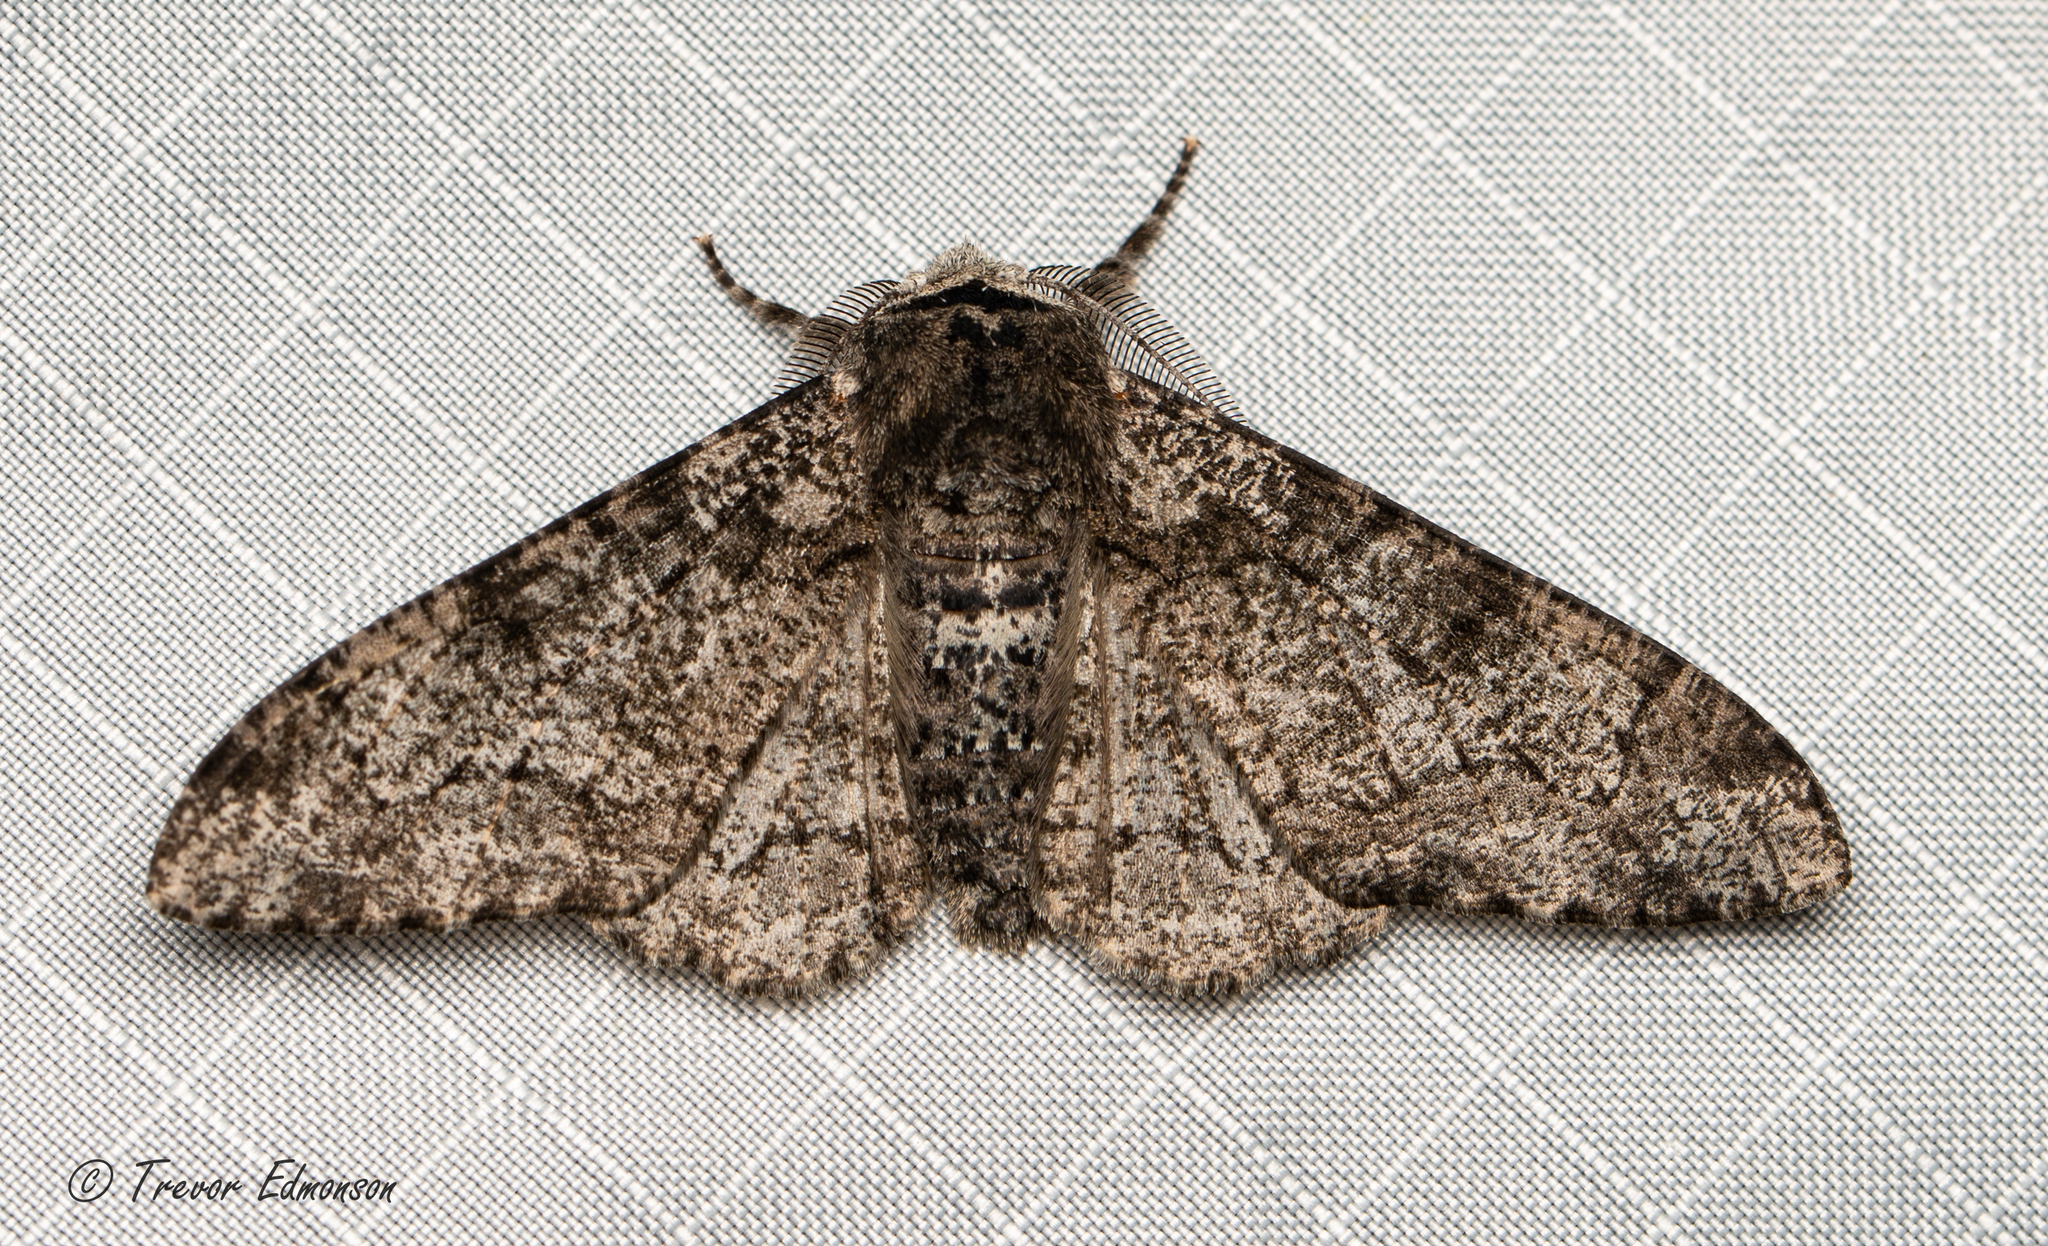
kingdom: Animalia
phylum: Arthropoda
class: Insecta
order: Lepidoptera
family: Geometridae
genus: Biston
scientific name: Biston betularia
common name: Peppered moth
